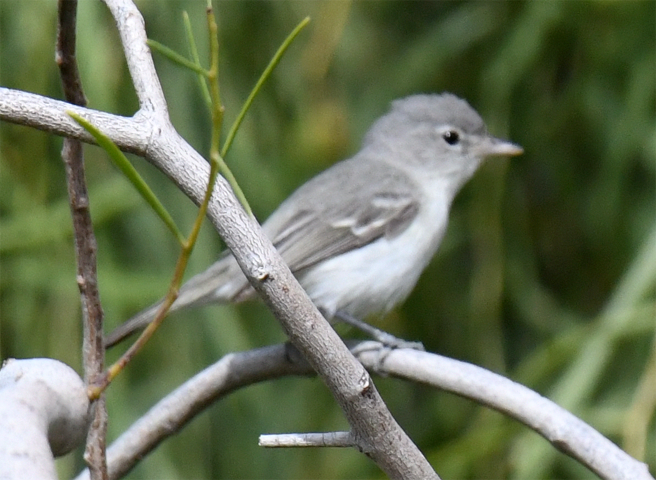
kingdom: Animalia
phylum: Chordata
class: Aves
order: Passeriformes
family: Vireonidae
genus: Vireo
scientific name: Vireo bellii
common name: Bell's vireo
